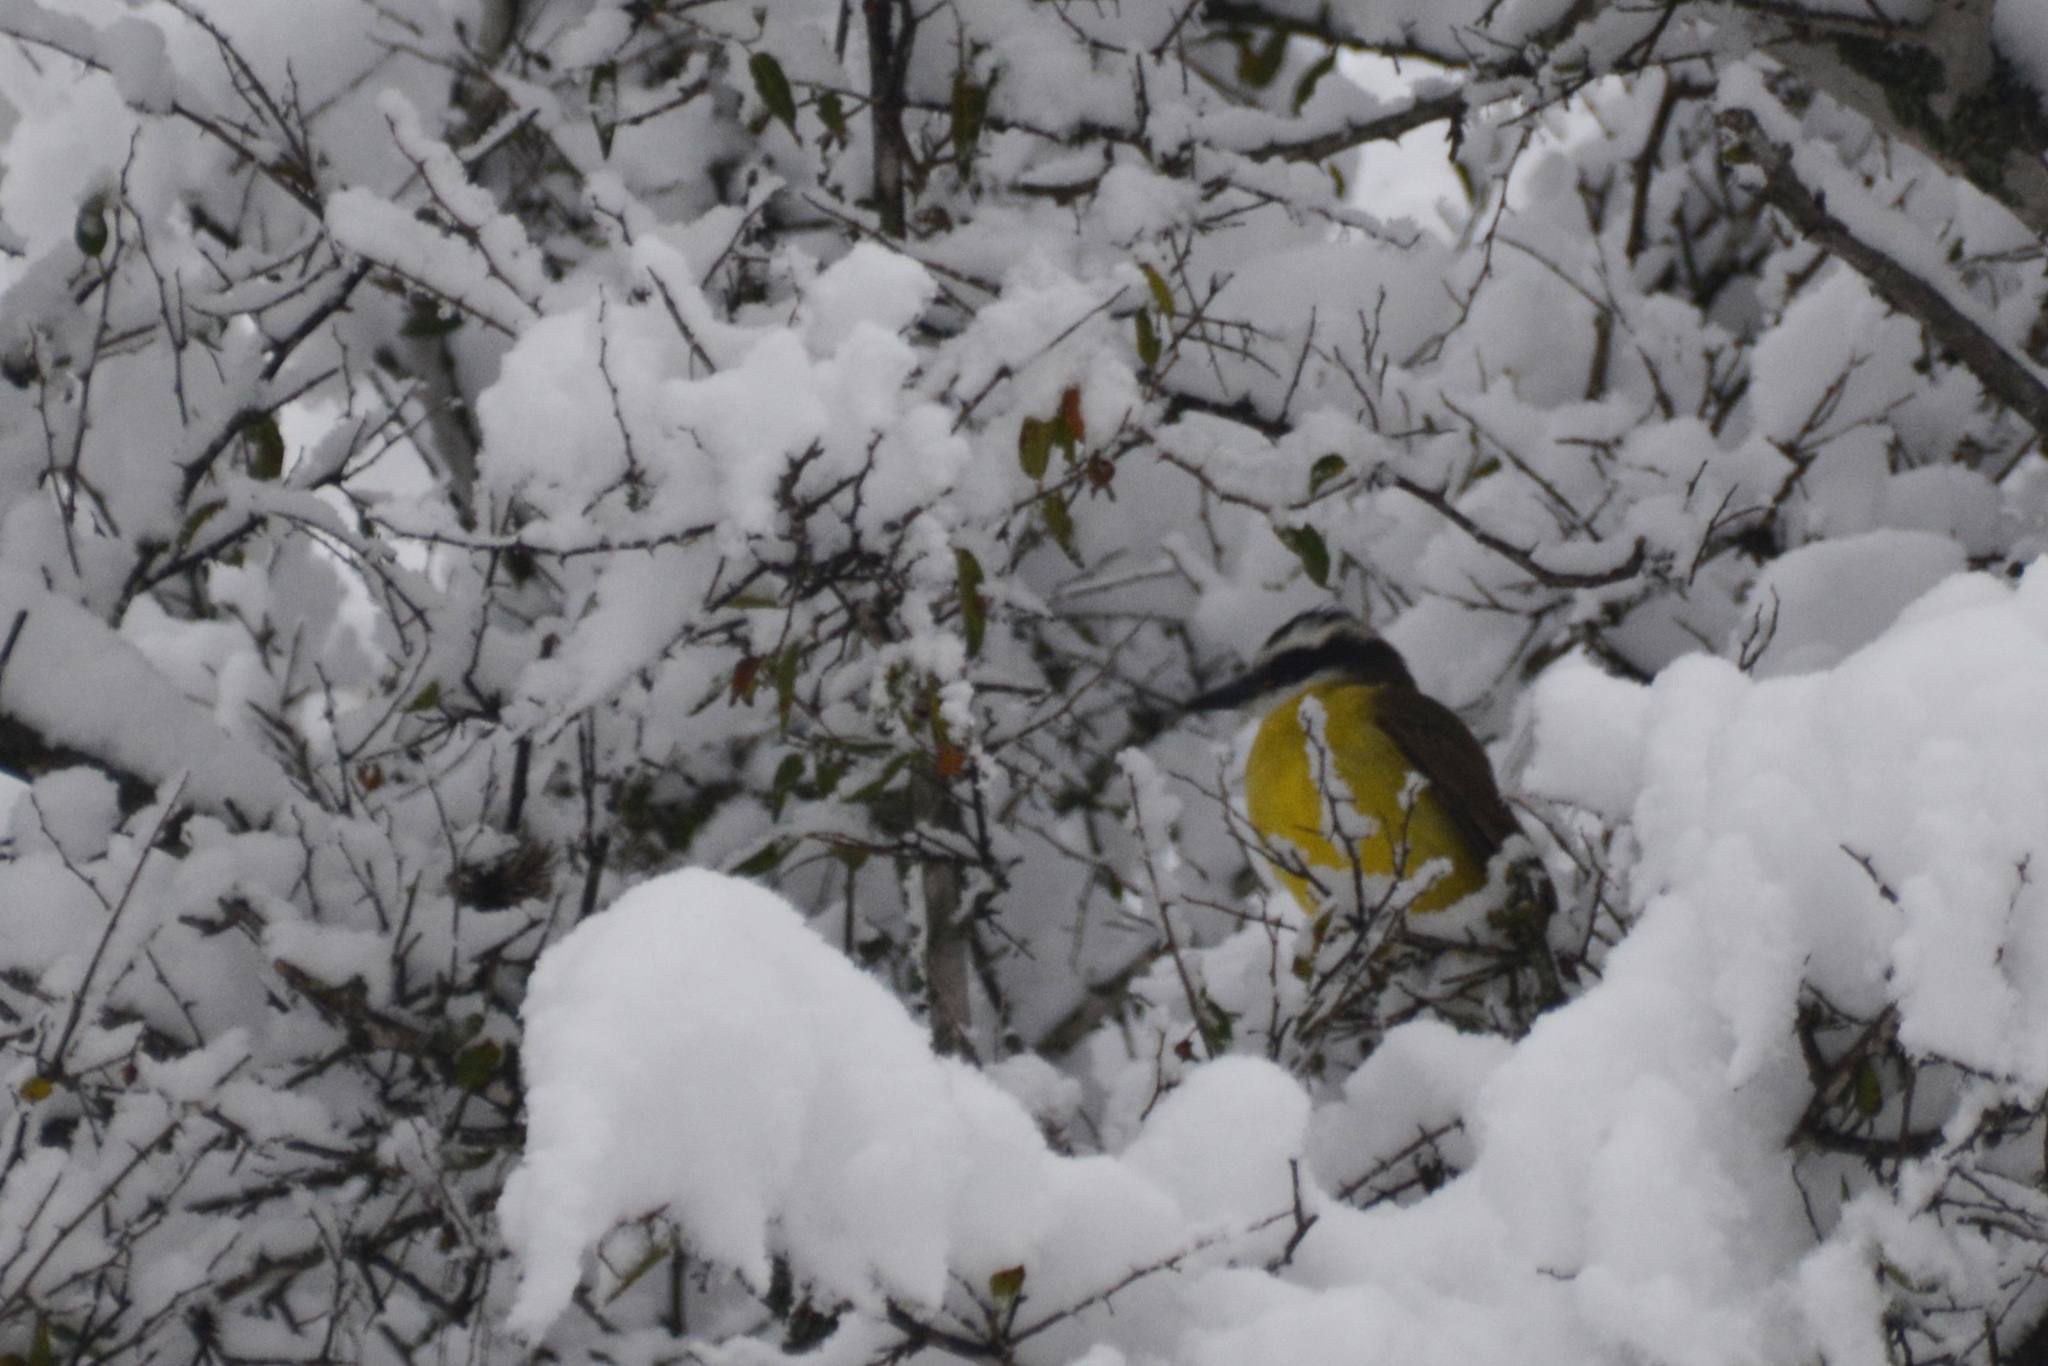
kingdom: Animalia
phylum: Chordata
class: Aves
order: Passeriformes
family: Tyrannidae
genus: Pitangus
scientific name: Pitangus sulphuratus
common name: Great kiskadee
